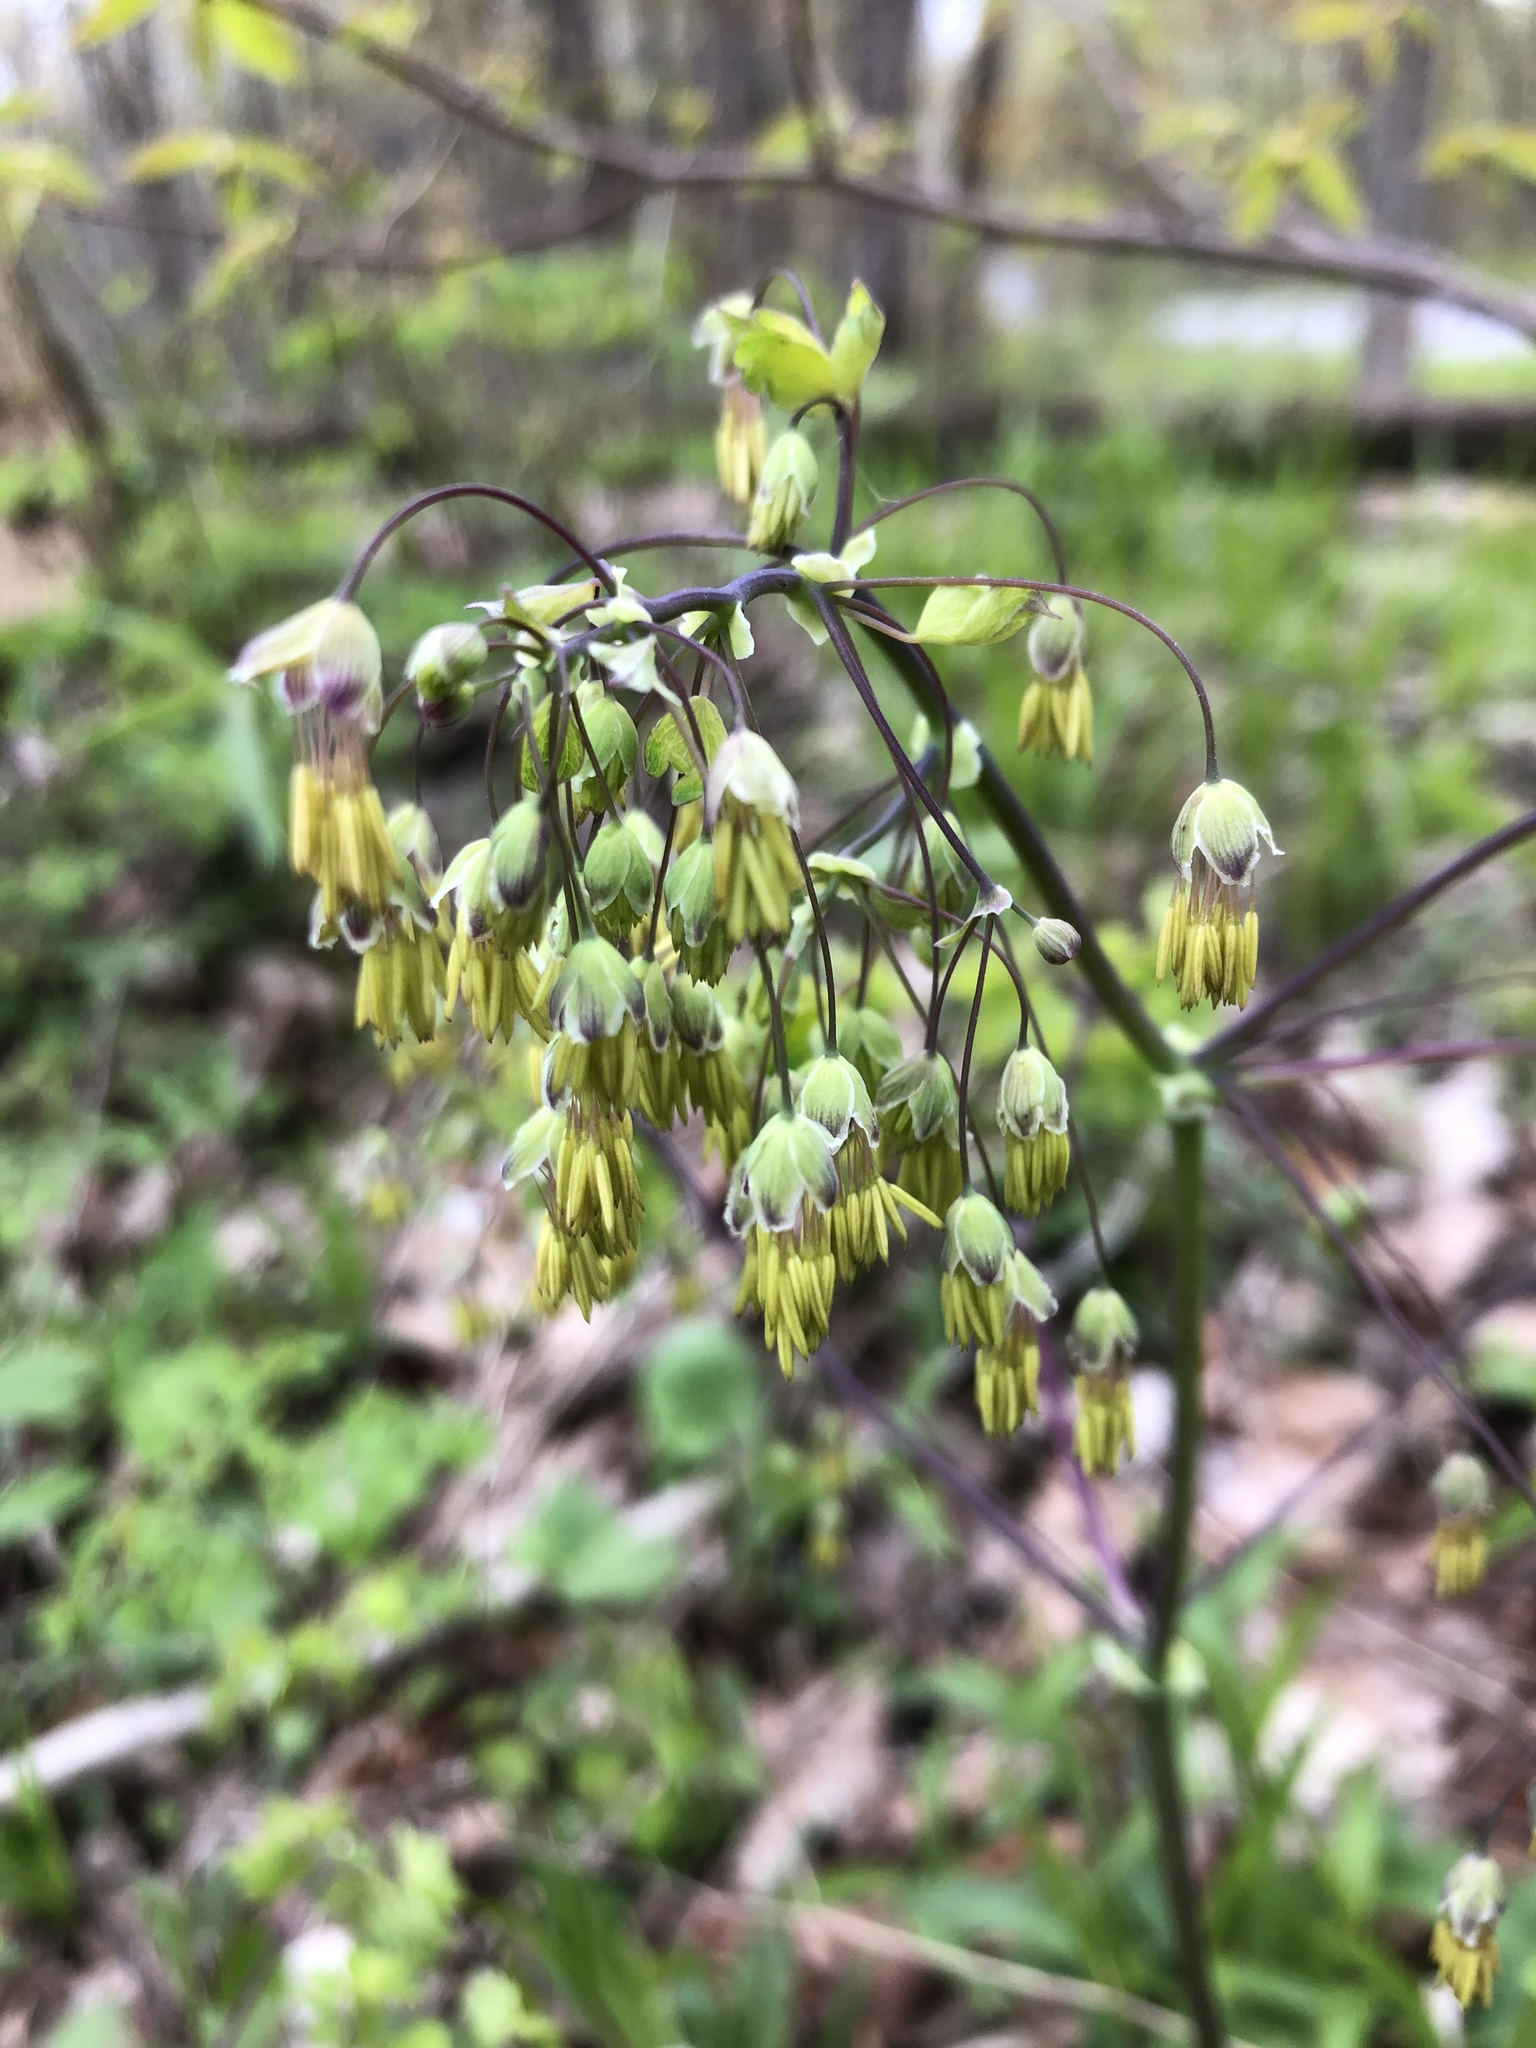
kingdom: Plantae
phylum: Tracheophyta
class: Magnoliopsida
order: Ranunculales
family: Ranunculaceae
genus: Thalictrum
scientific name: Thalictrum dioicum
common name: Early meadow-rue
